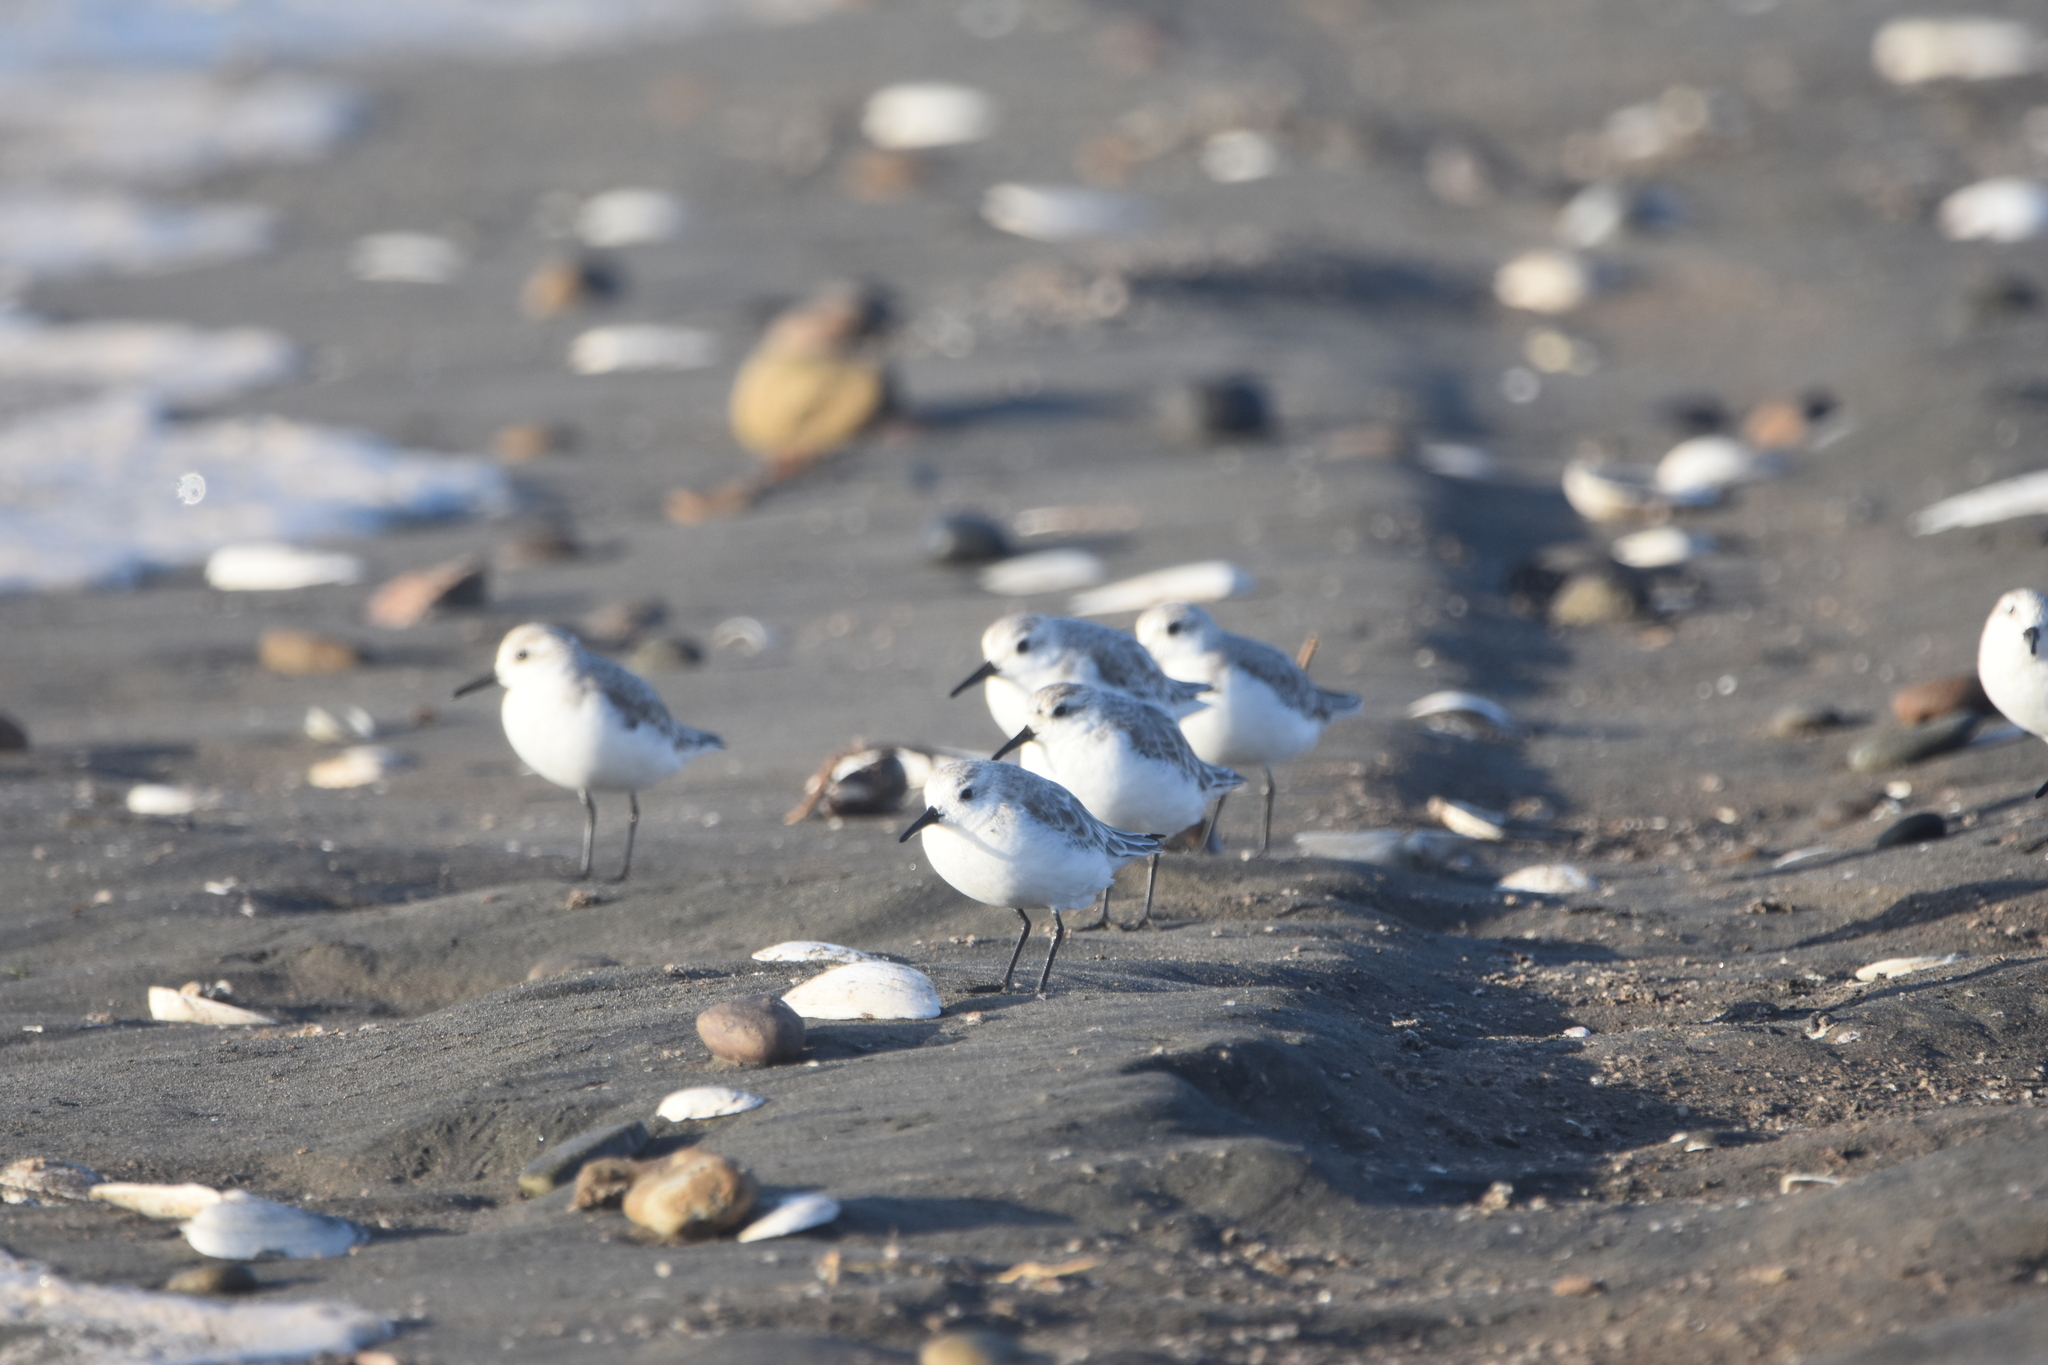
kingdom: Animalia
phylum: Chordata
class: Aves
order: Charadriiformes
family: Scolopacidae
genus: Calidris
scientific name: Calidris alba
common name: Sanderling
